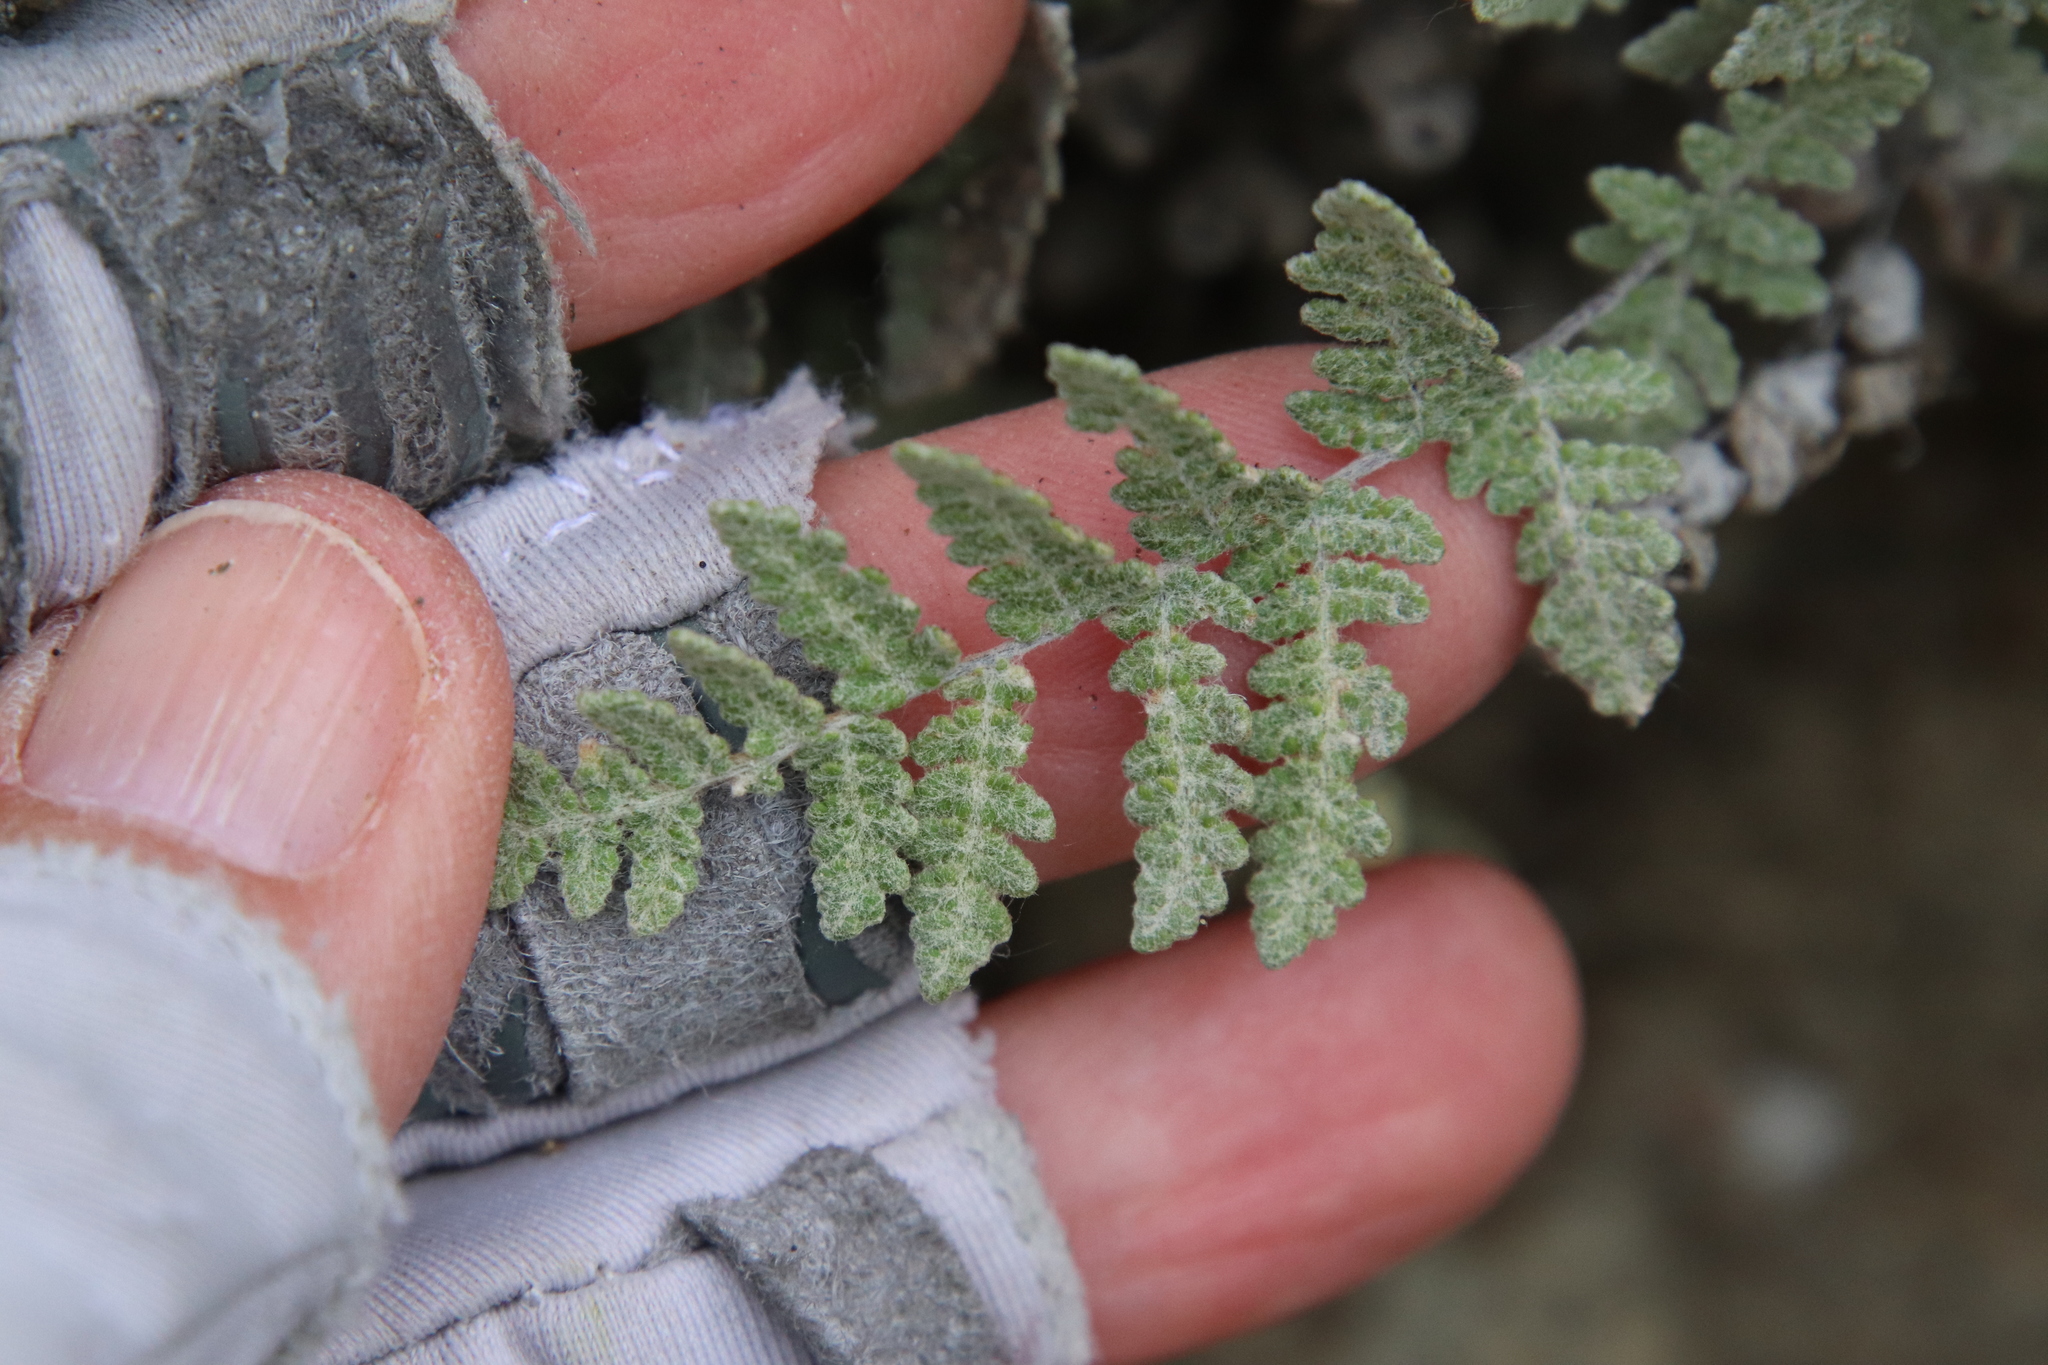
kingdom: Plantae
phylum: Tracheophyta
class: Polypodiopsida
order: Polypodiales
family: Pteridaceae
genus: Myriopteris
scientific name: Myriopteris newberryi
